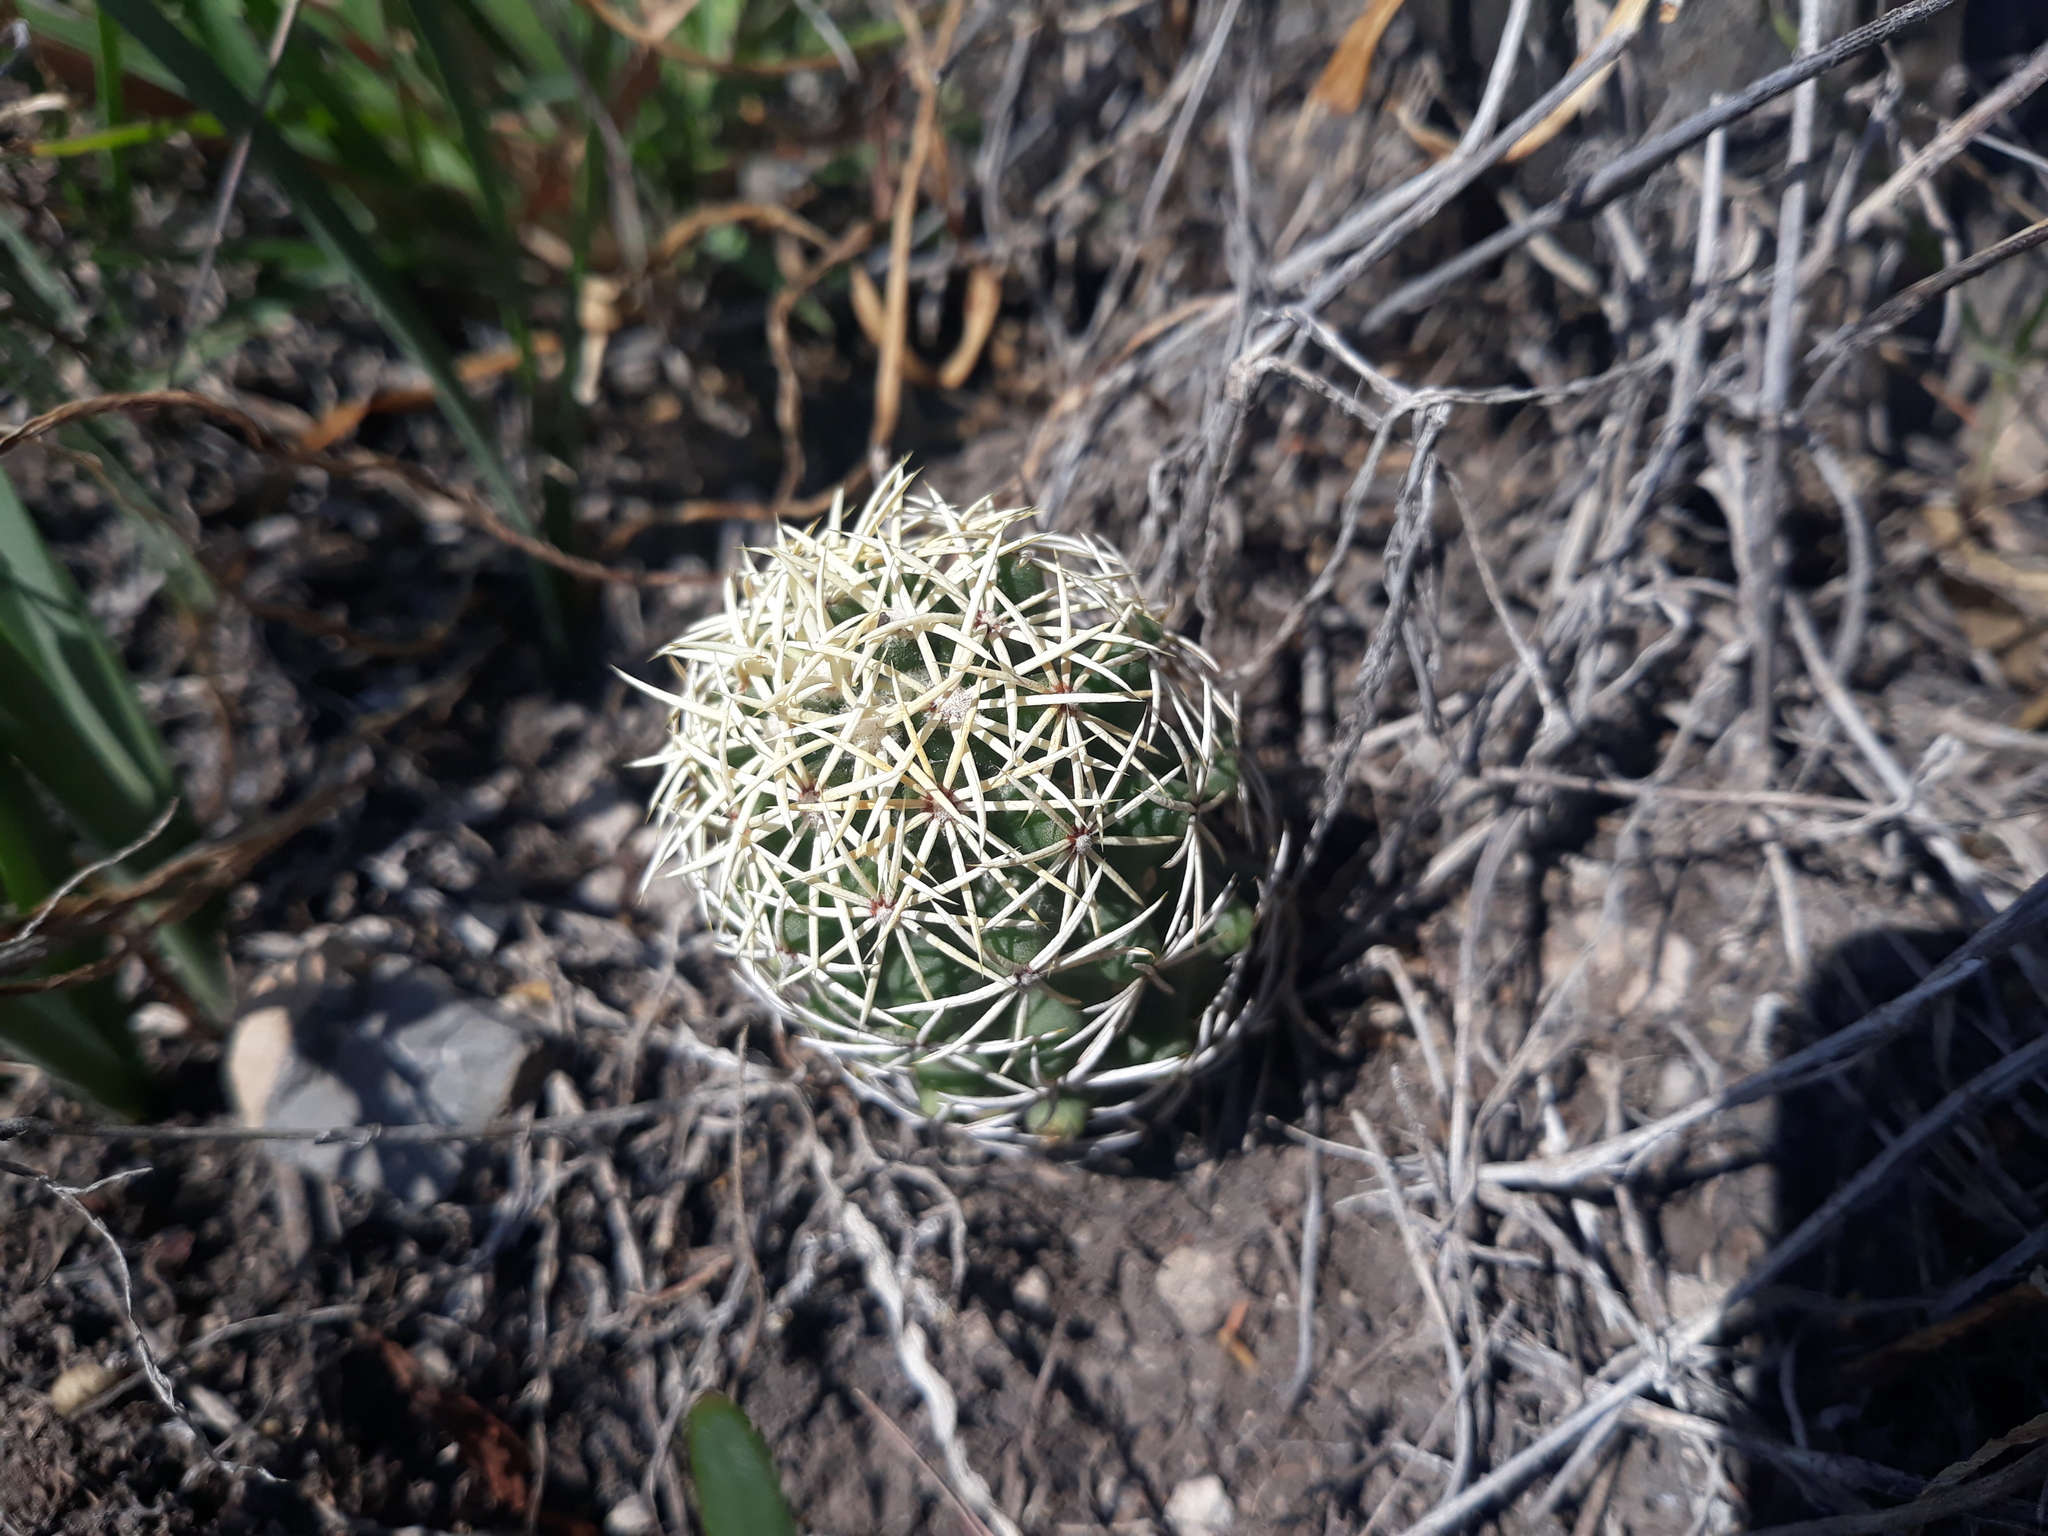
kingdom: Plantae
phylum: Tracheophyta
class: Magnoliopsida
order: Caryophyllales
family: Cactaceae
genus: Coryphantha
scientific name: Coryphantha erecta
